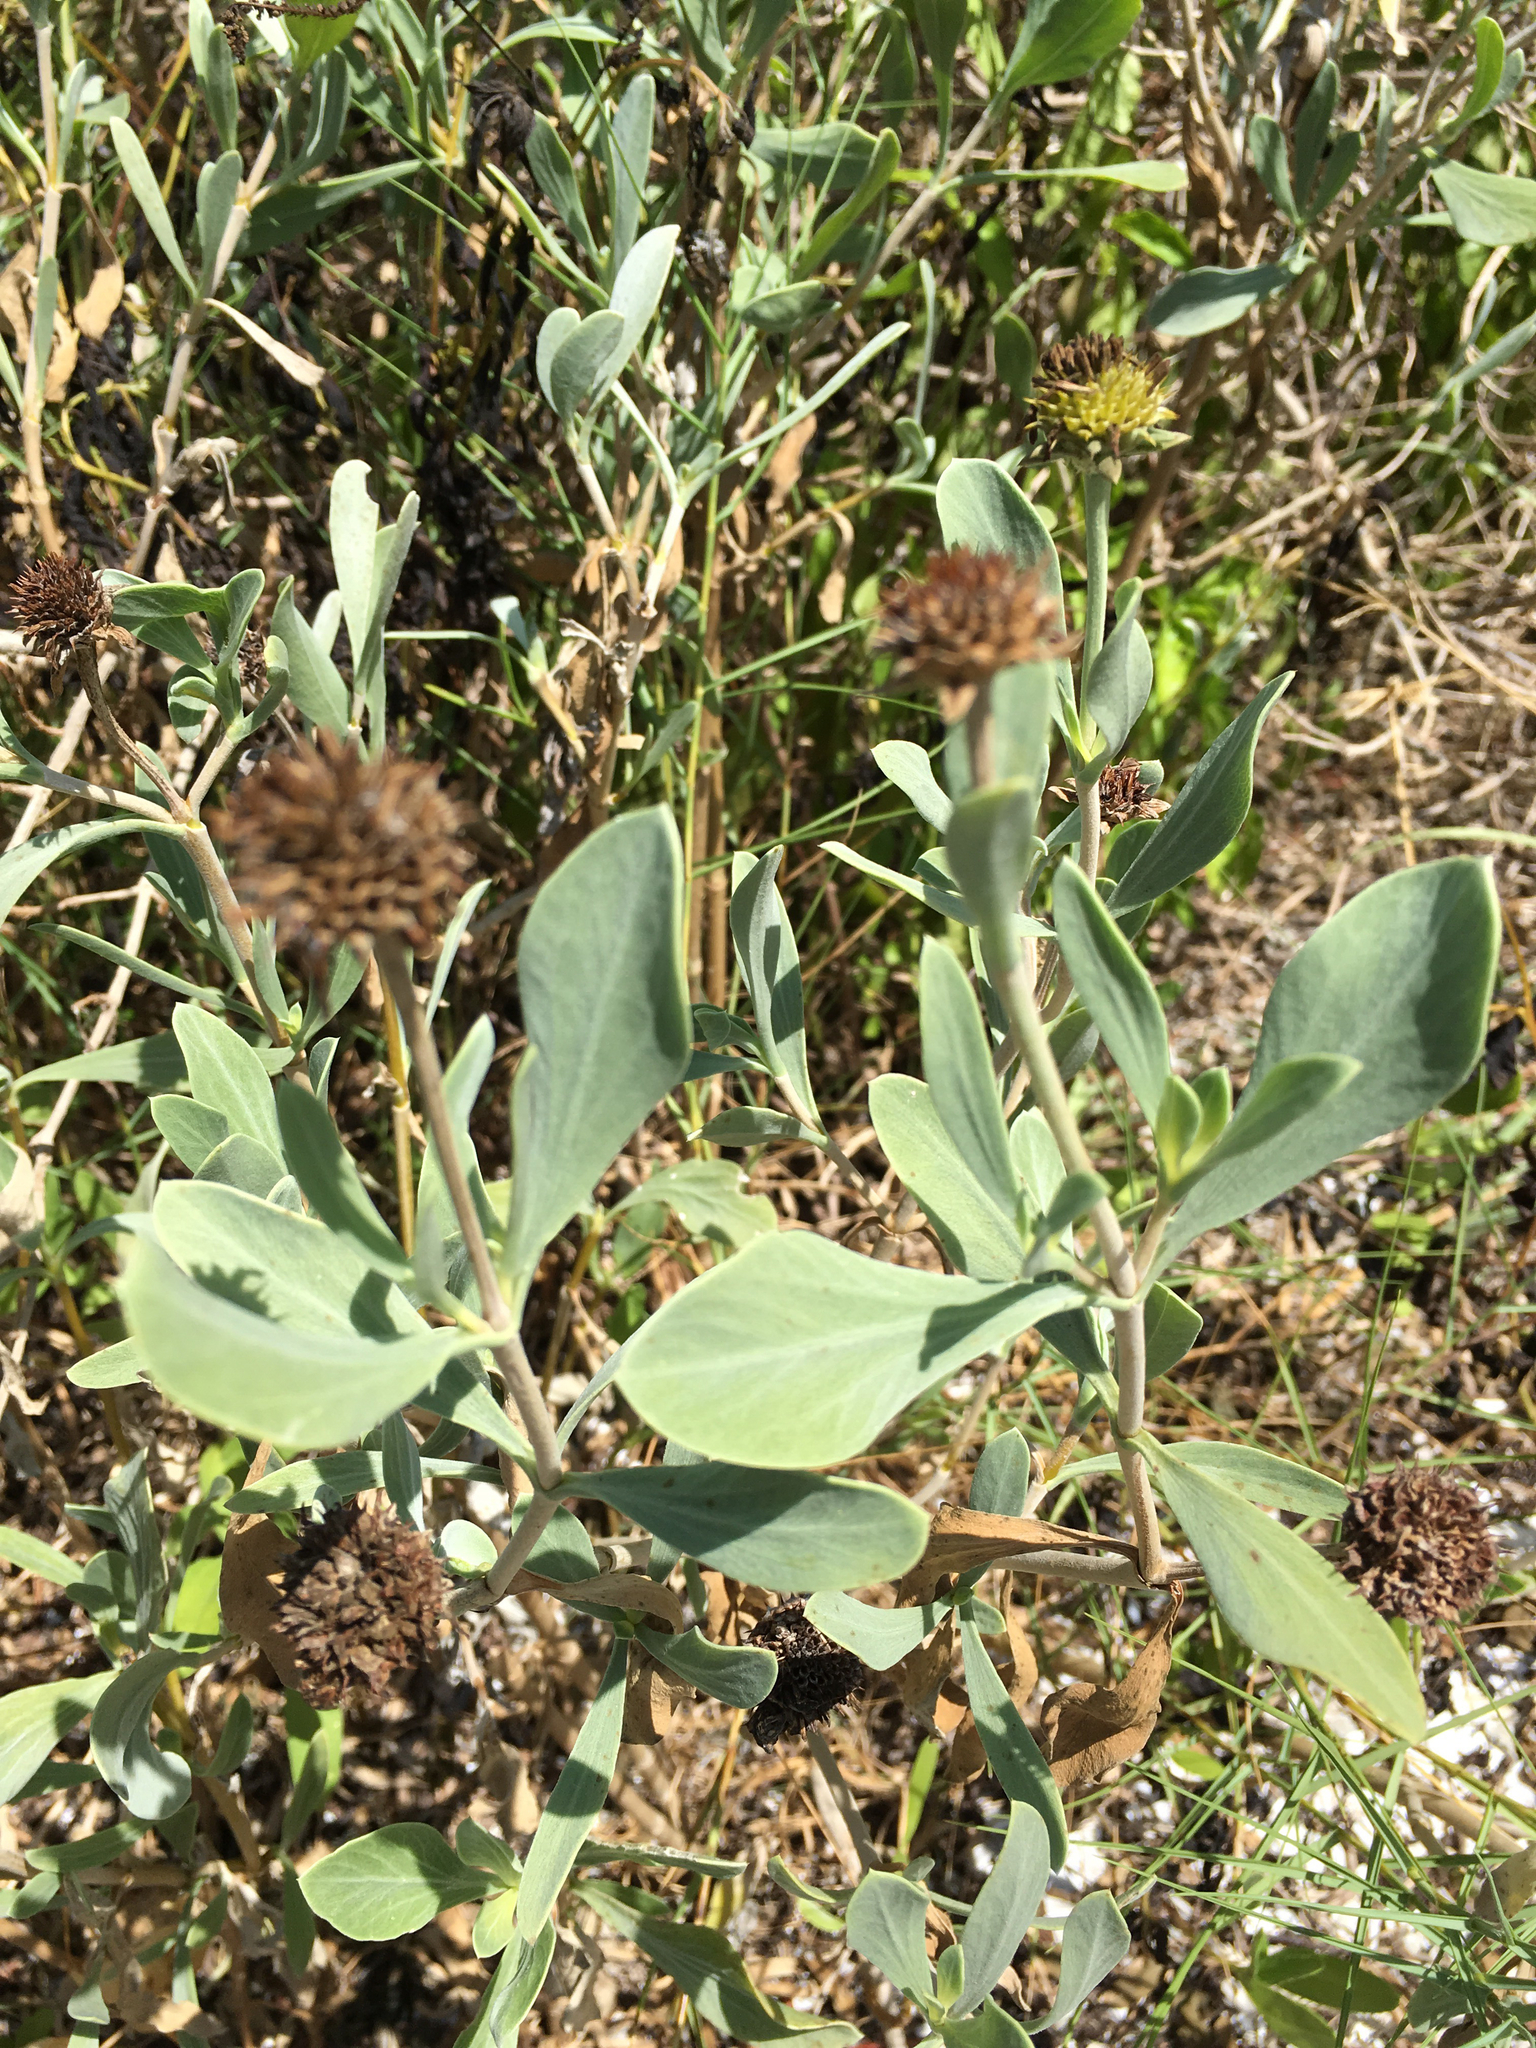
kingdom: Plantae
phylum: Tracheophyta
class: Magnoliopsida
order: Asterales
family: Asteraceae
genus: Borrichia
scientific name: Borrichia frutescens
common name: Sea oxeye
